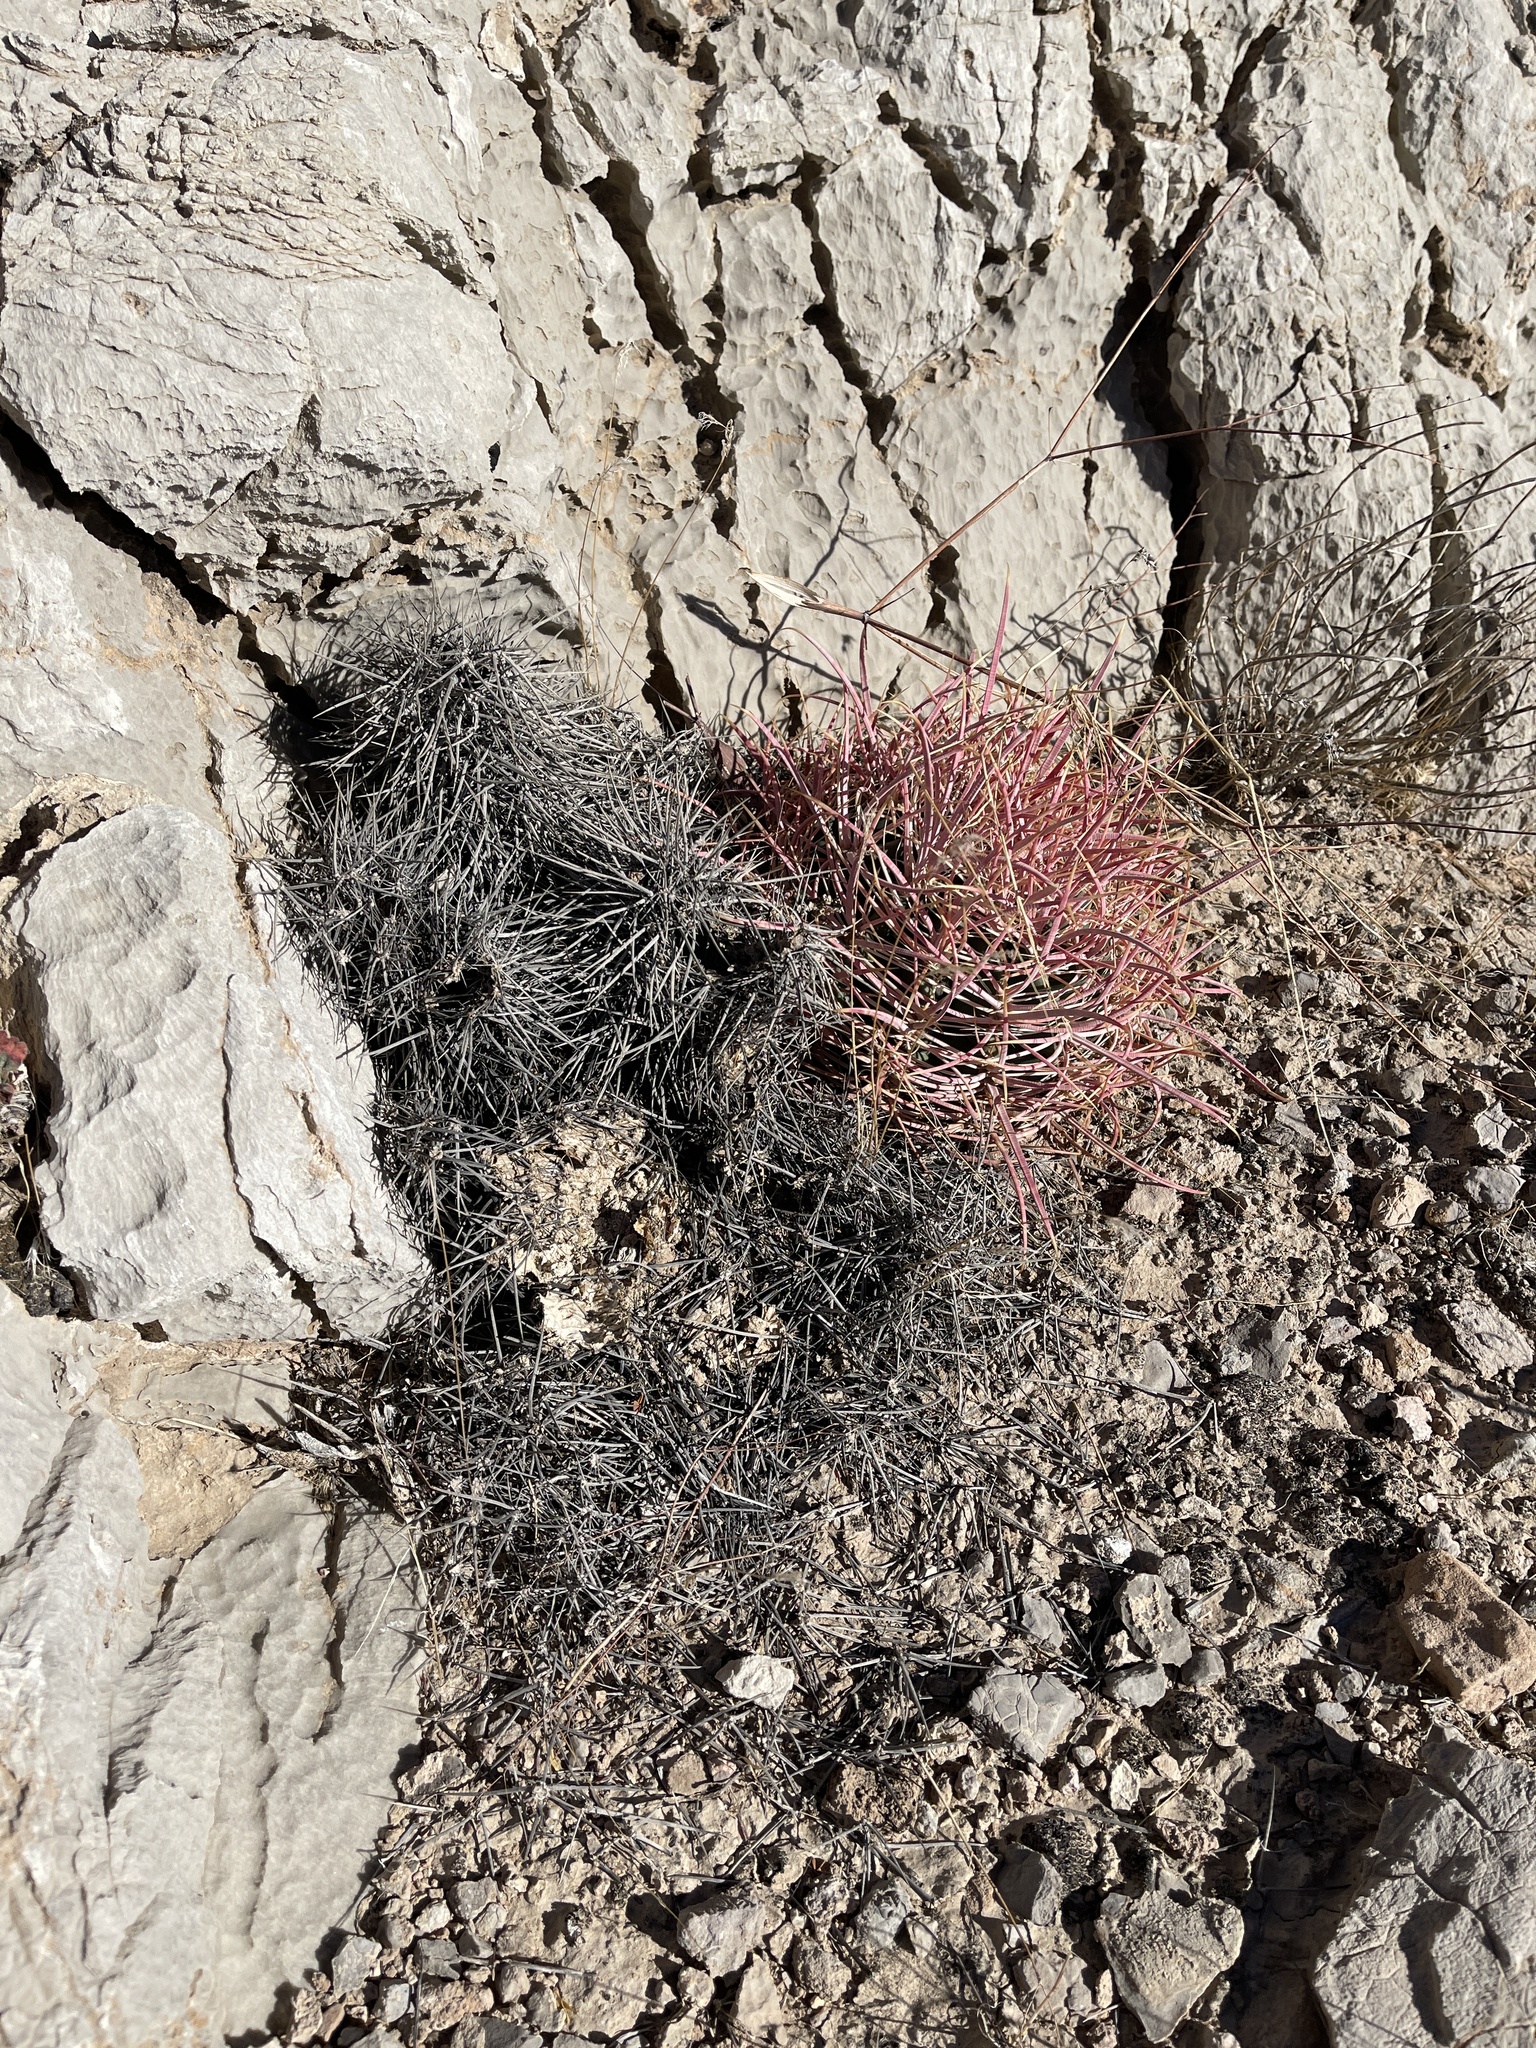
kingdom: Plantae
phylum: Tracheophyta
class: Magnoliopsida
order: Caryophyllales
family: Cactaceae
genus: Ferocactus
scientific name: Ferocactus cylindraceus
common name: California barrel cactus
